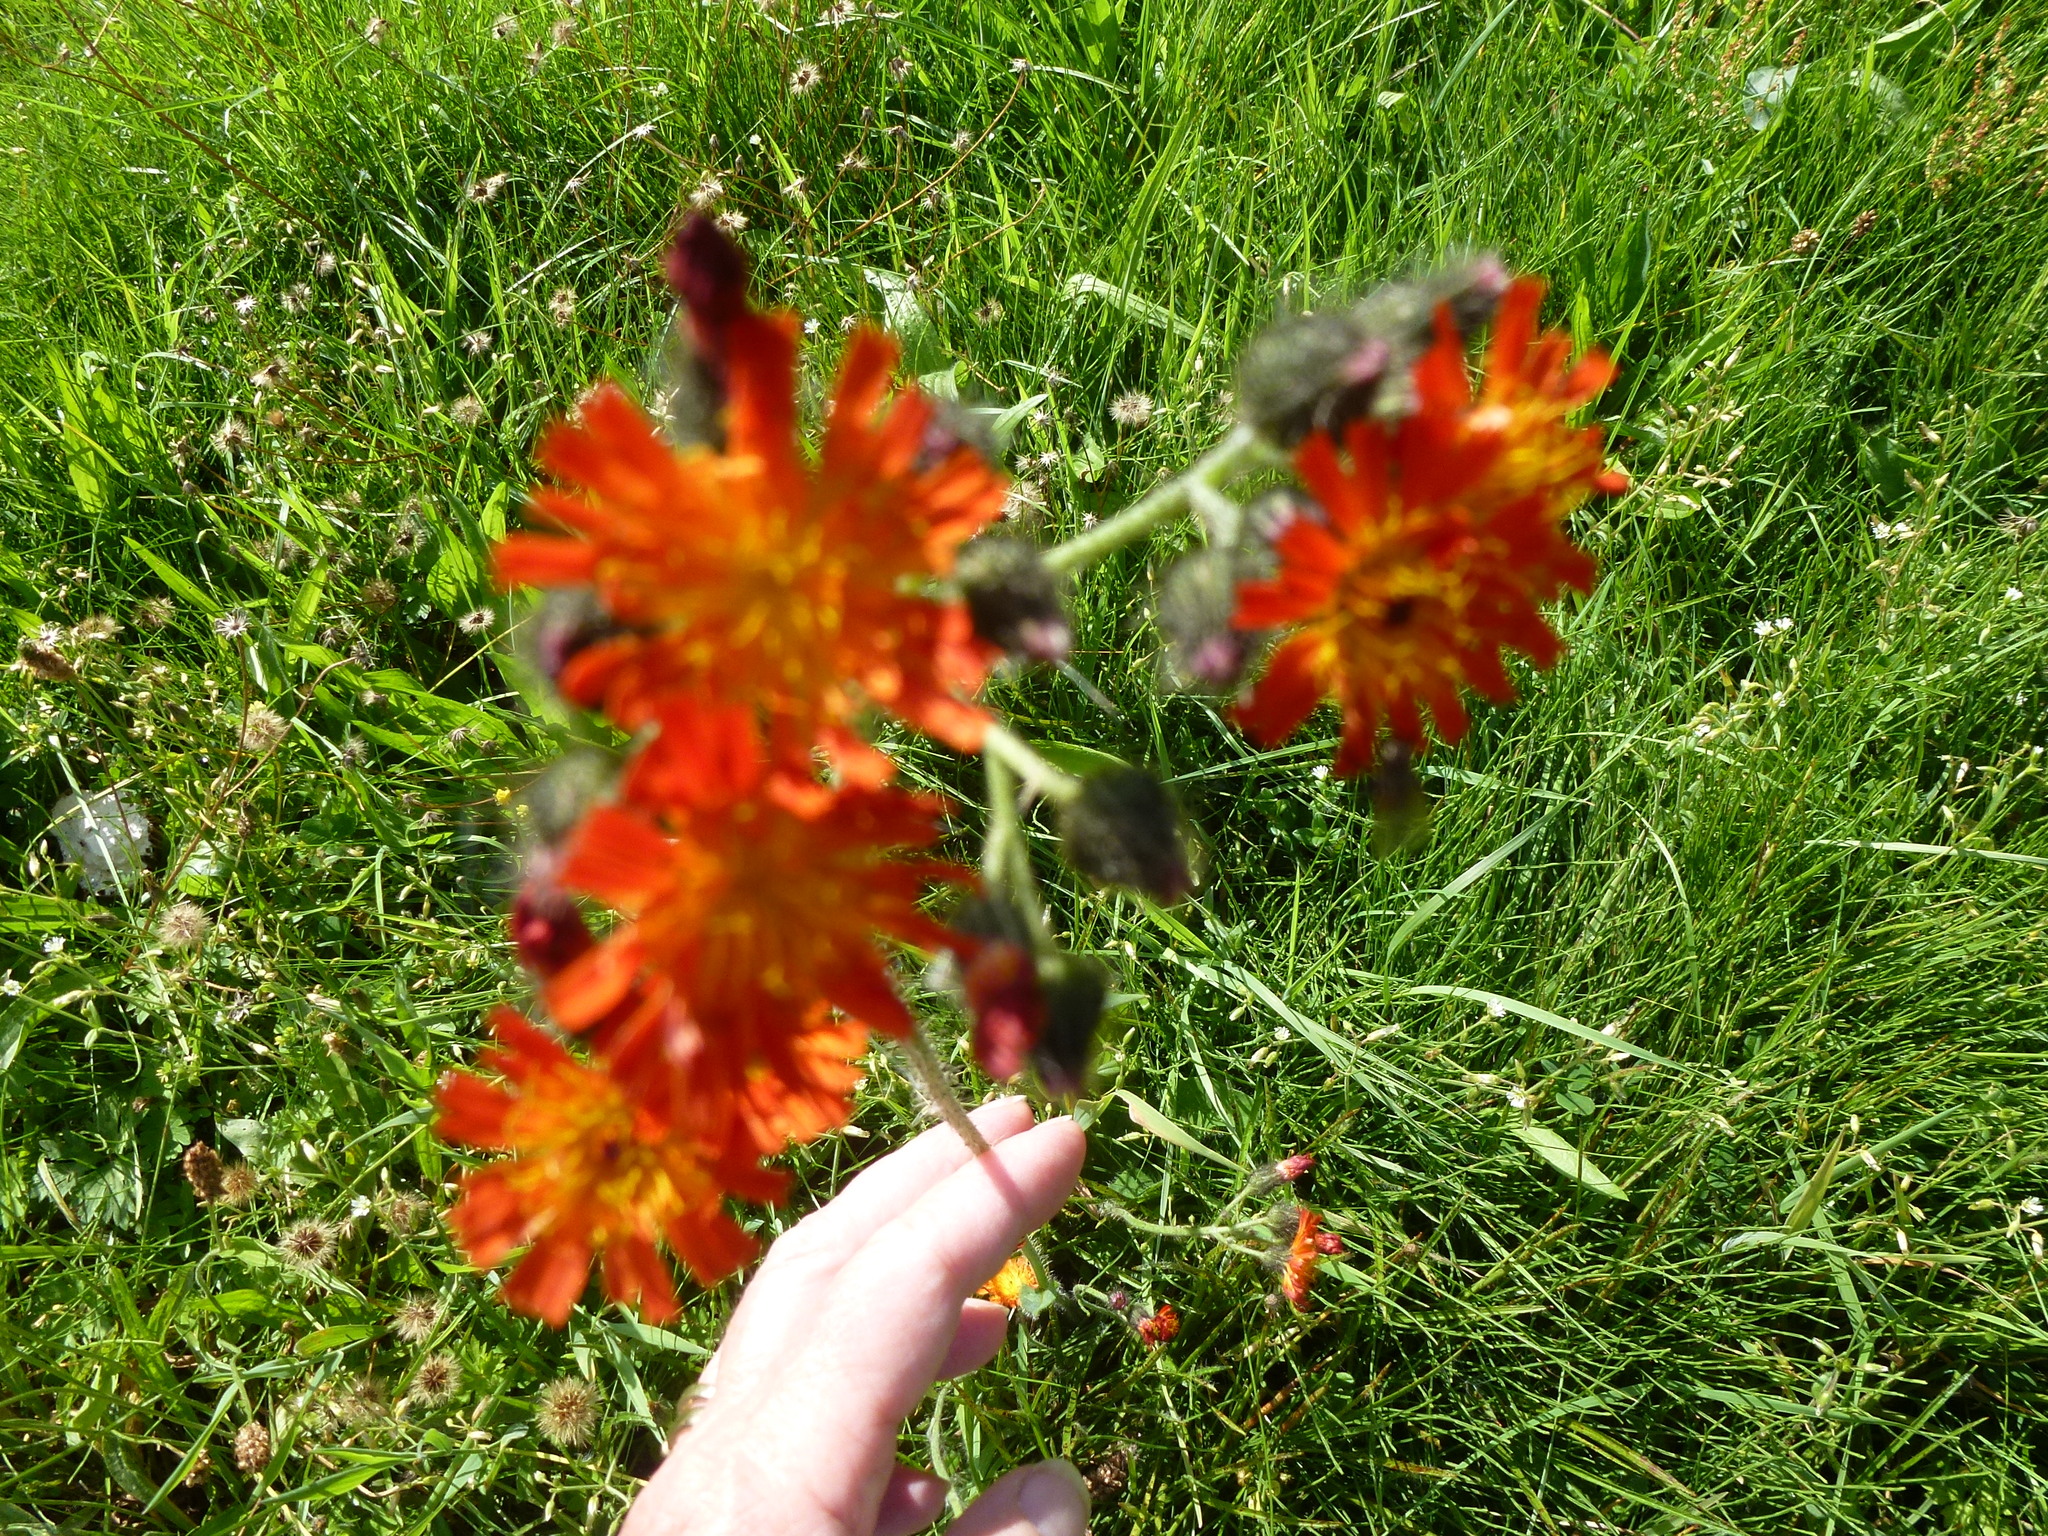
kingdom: Plantae
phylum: Tracheophyta
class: Magnoliopsida
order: Asterales
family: Asteraceae
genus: Pilosella
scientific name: Pilosella aurantiaca
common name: Fox-and-cubs
